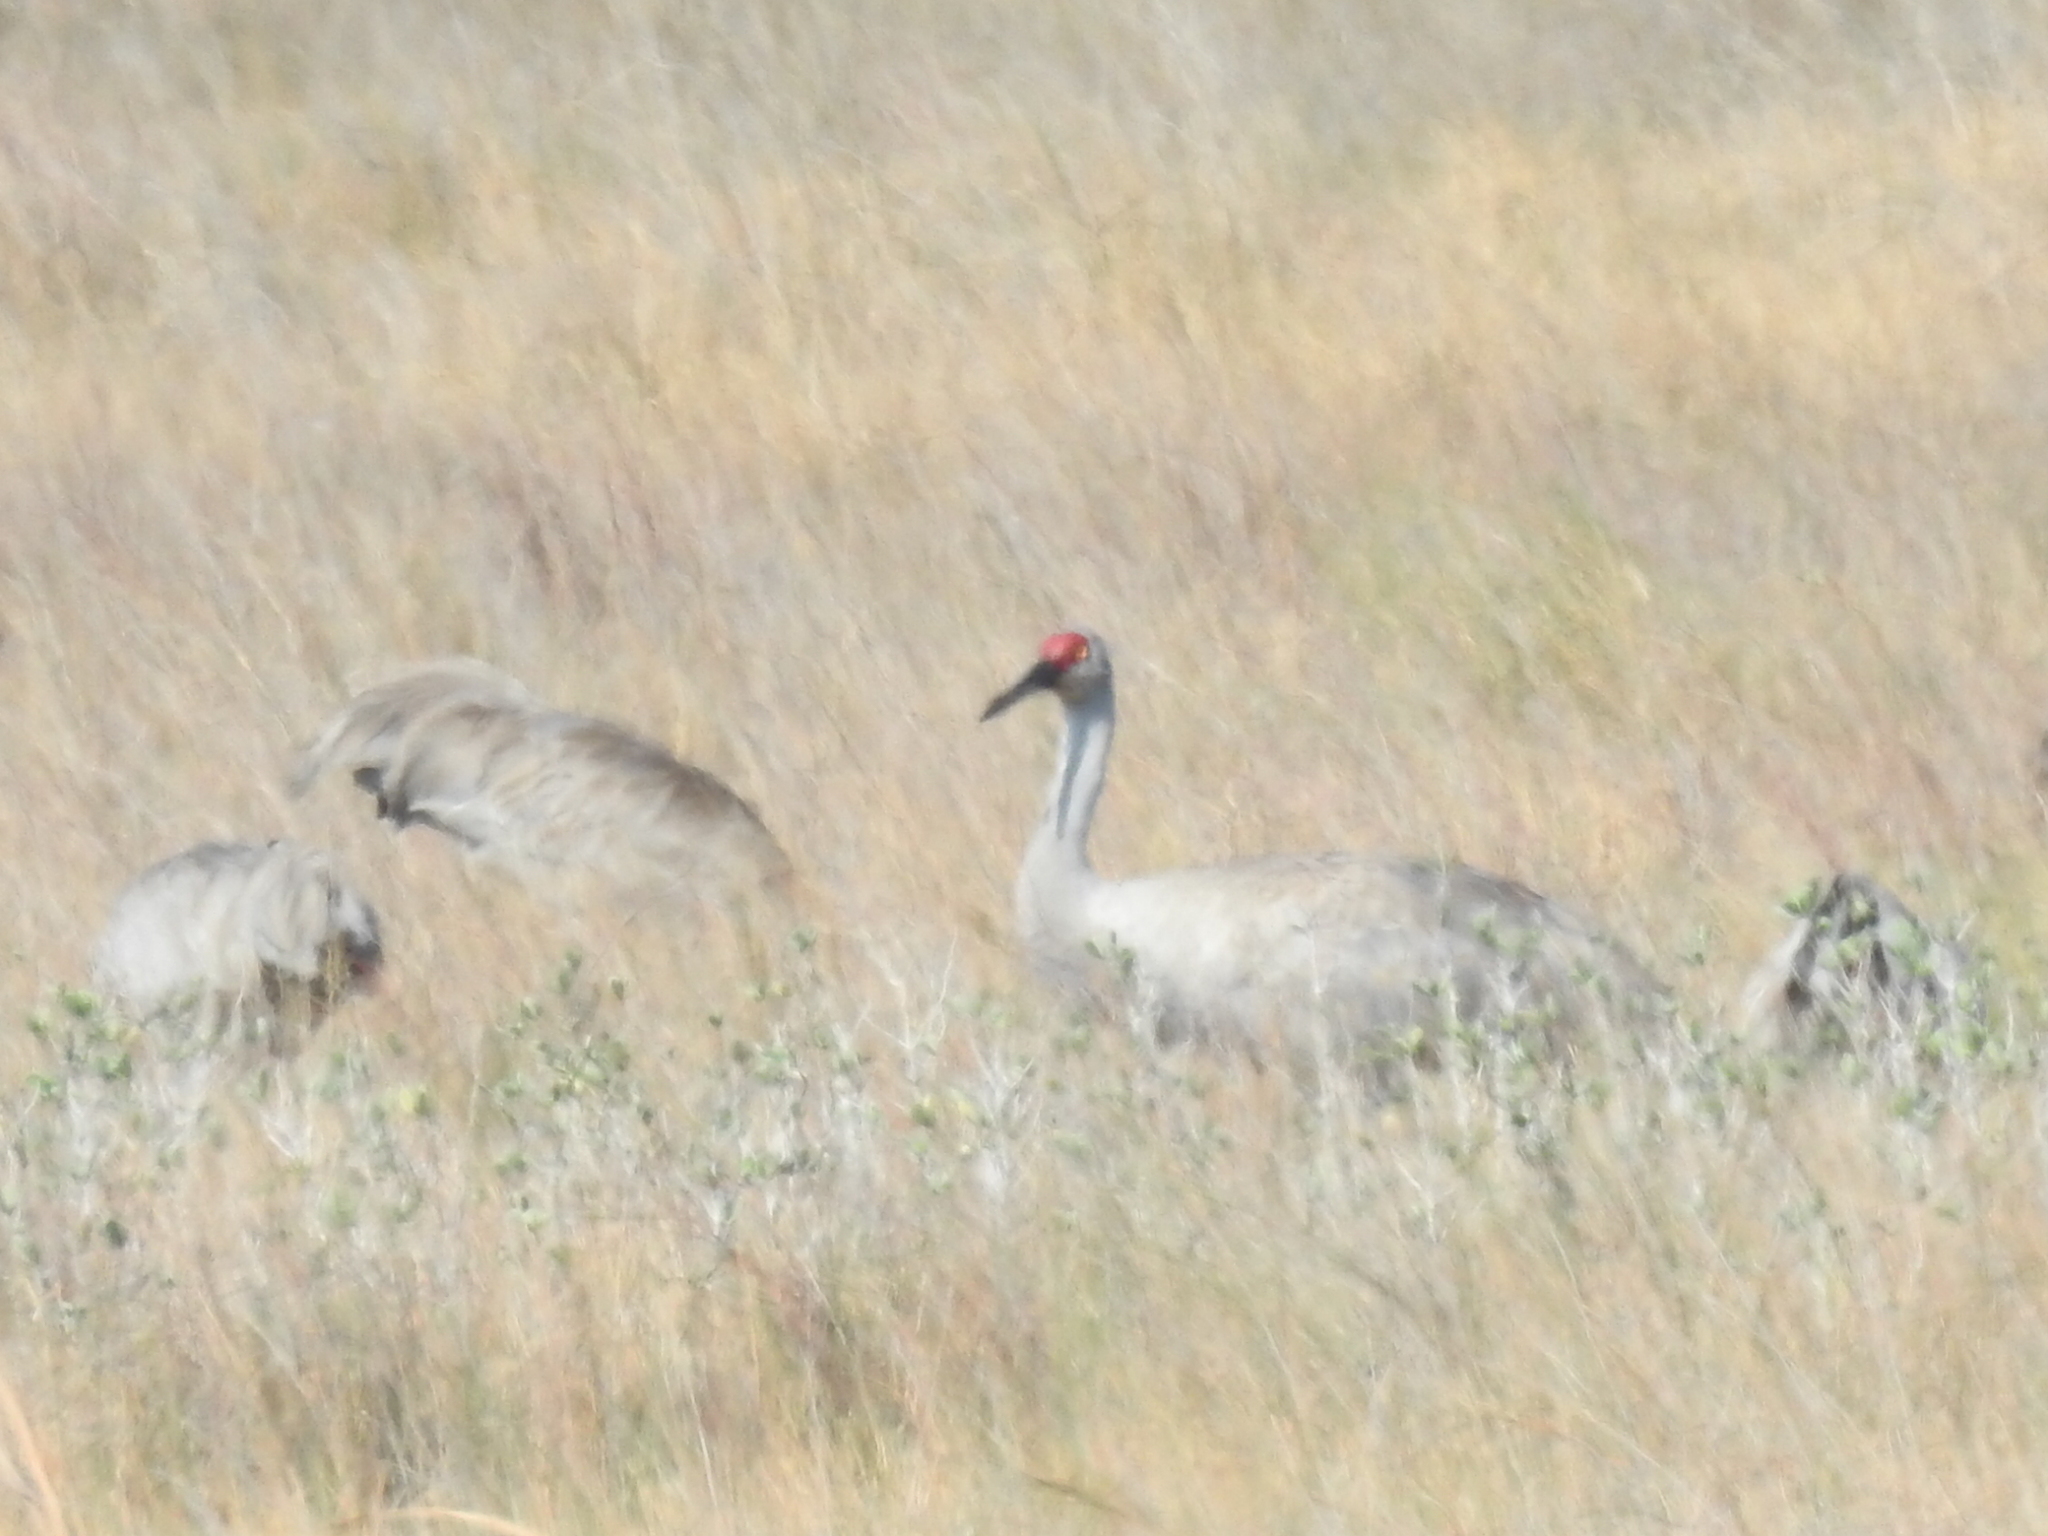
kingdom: Animalia
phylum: Chordata
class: Aves
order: Gruiformes
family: Gruidae
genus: Grus
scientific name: Grus canadensis
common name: Sandhill crane
